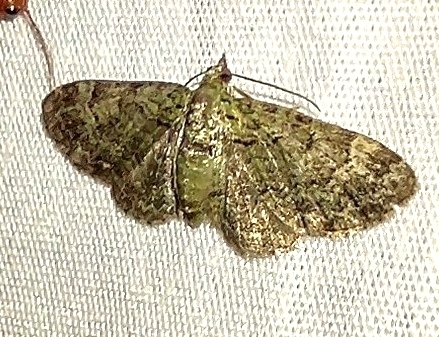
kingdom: Animalia
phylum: Arthropoda
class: Insecta
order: Lepidoptera
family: Geometridae
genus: Pasiphila
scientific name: Pasiphila rectangulata
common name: Green pug
